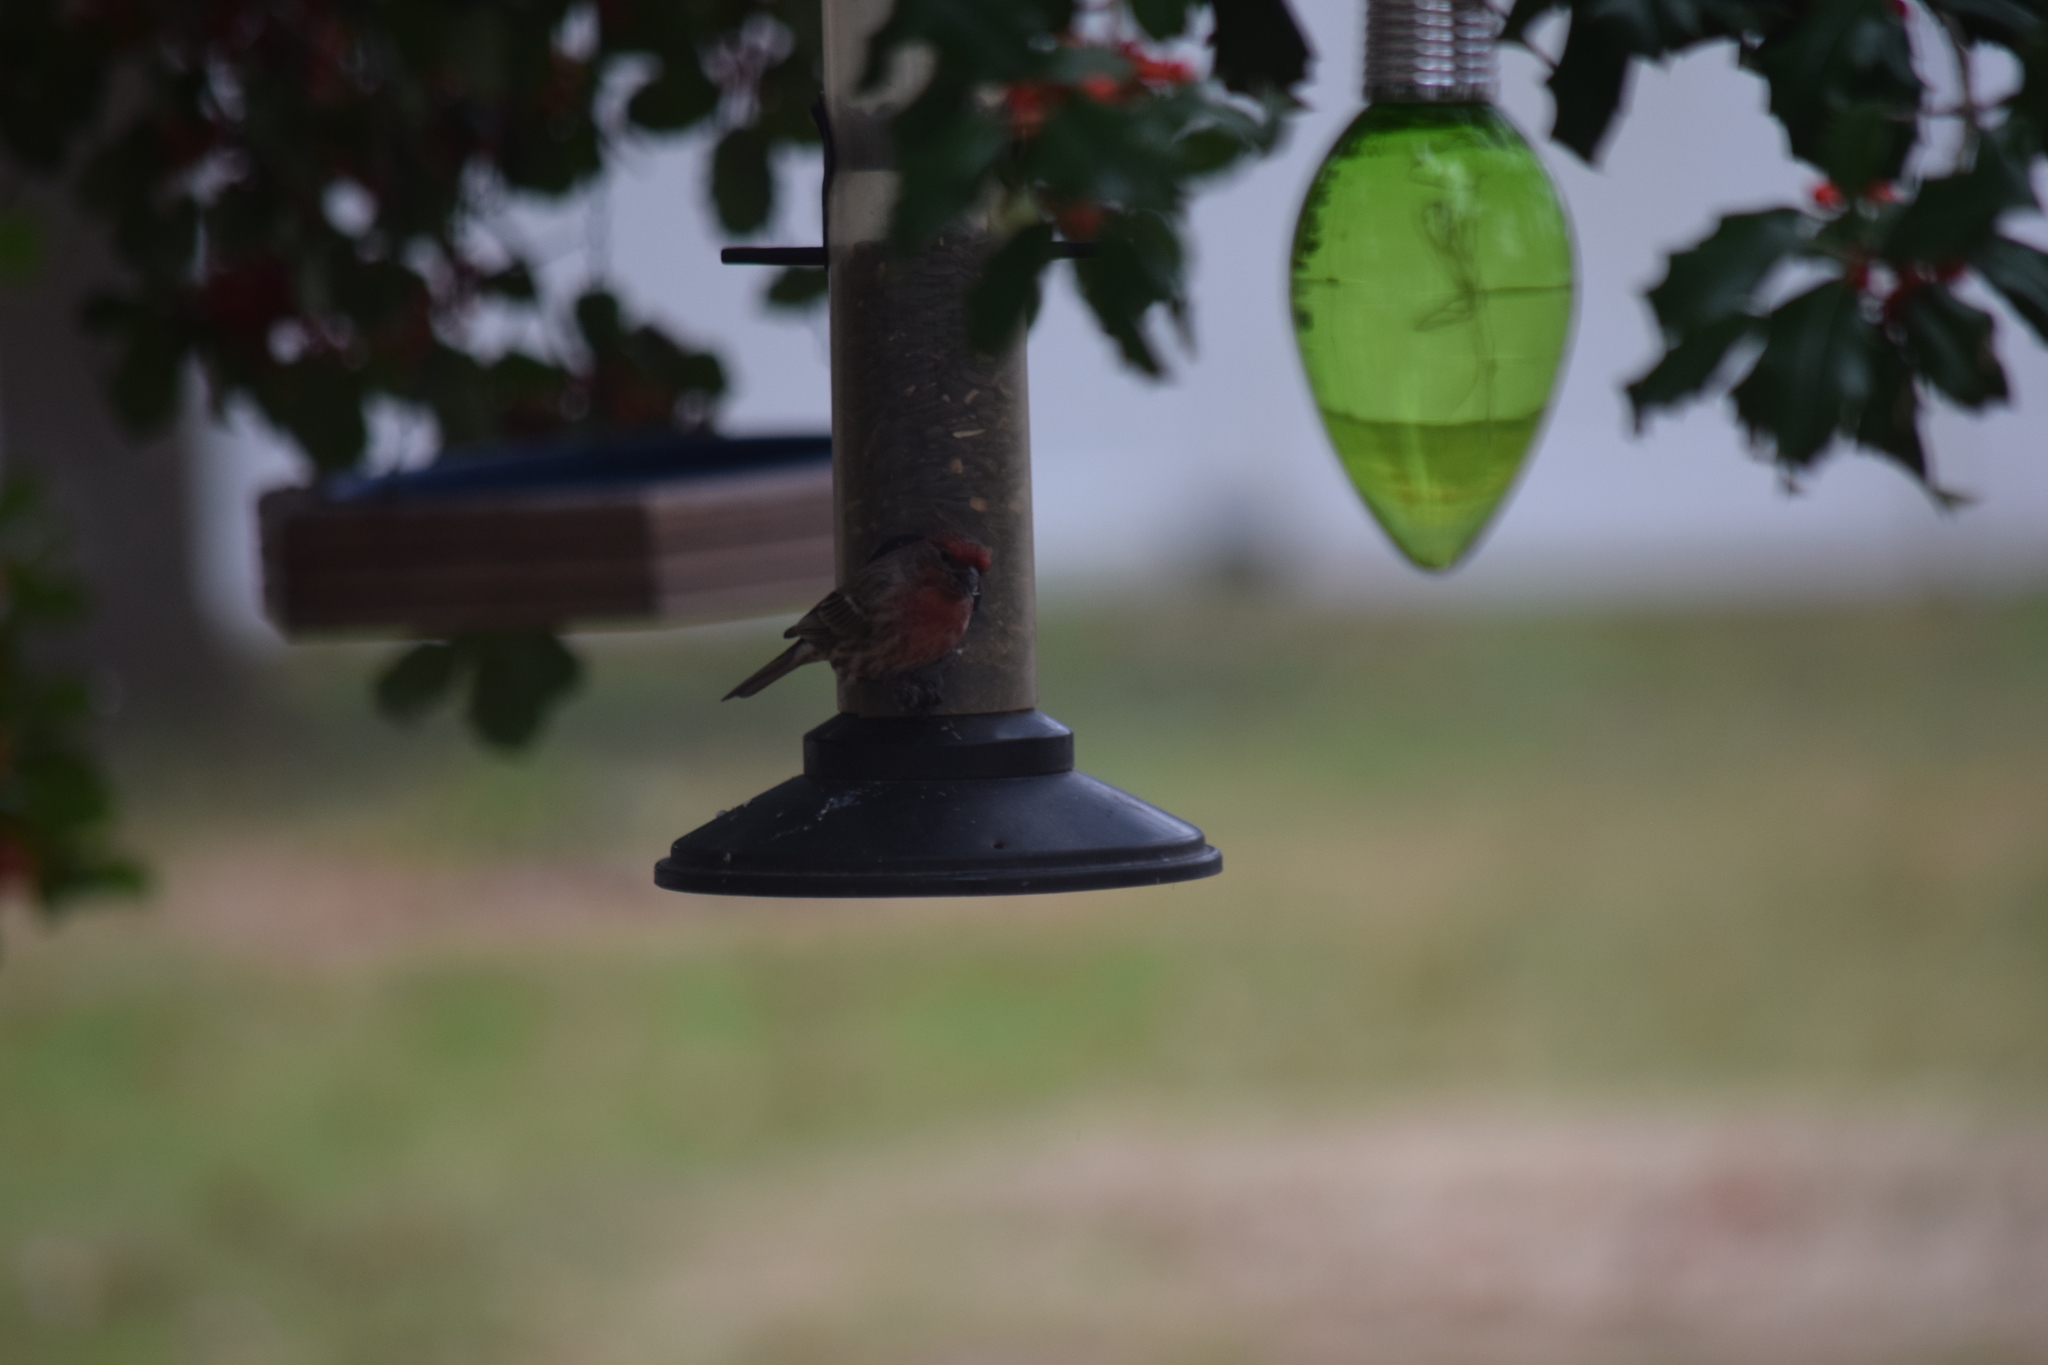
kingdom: Animalia
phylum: Chordata
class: Aves
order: Passeriformes
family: Fringillidae
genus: Haemorhous
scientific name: Haemorhous mexicanus
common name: House finch
